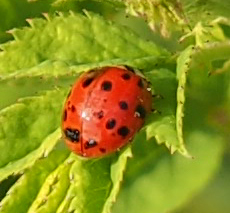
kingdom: Animalia
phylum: Arthropoda
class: Insecta
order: Coleoptera
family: Coccinellidae
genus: Harmonia
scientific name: Harmonia axyridis
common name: Harlequin ladybird
